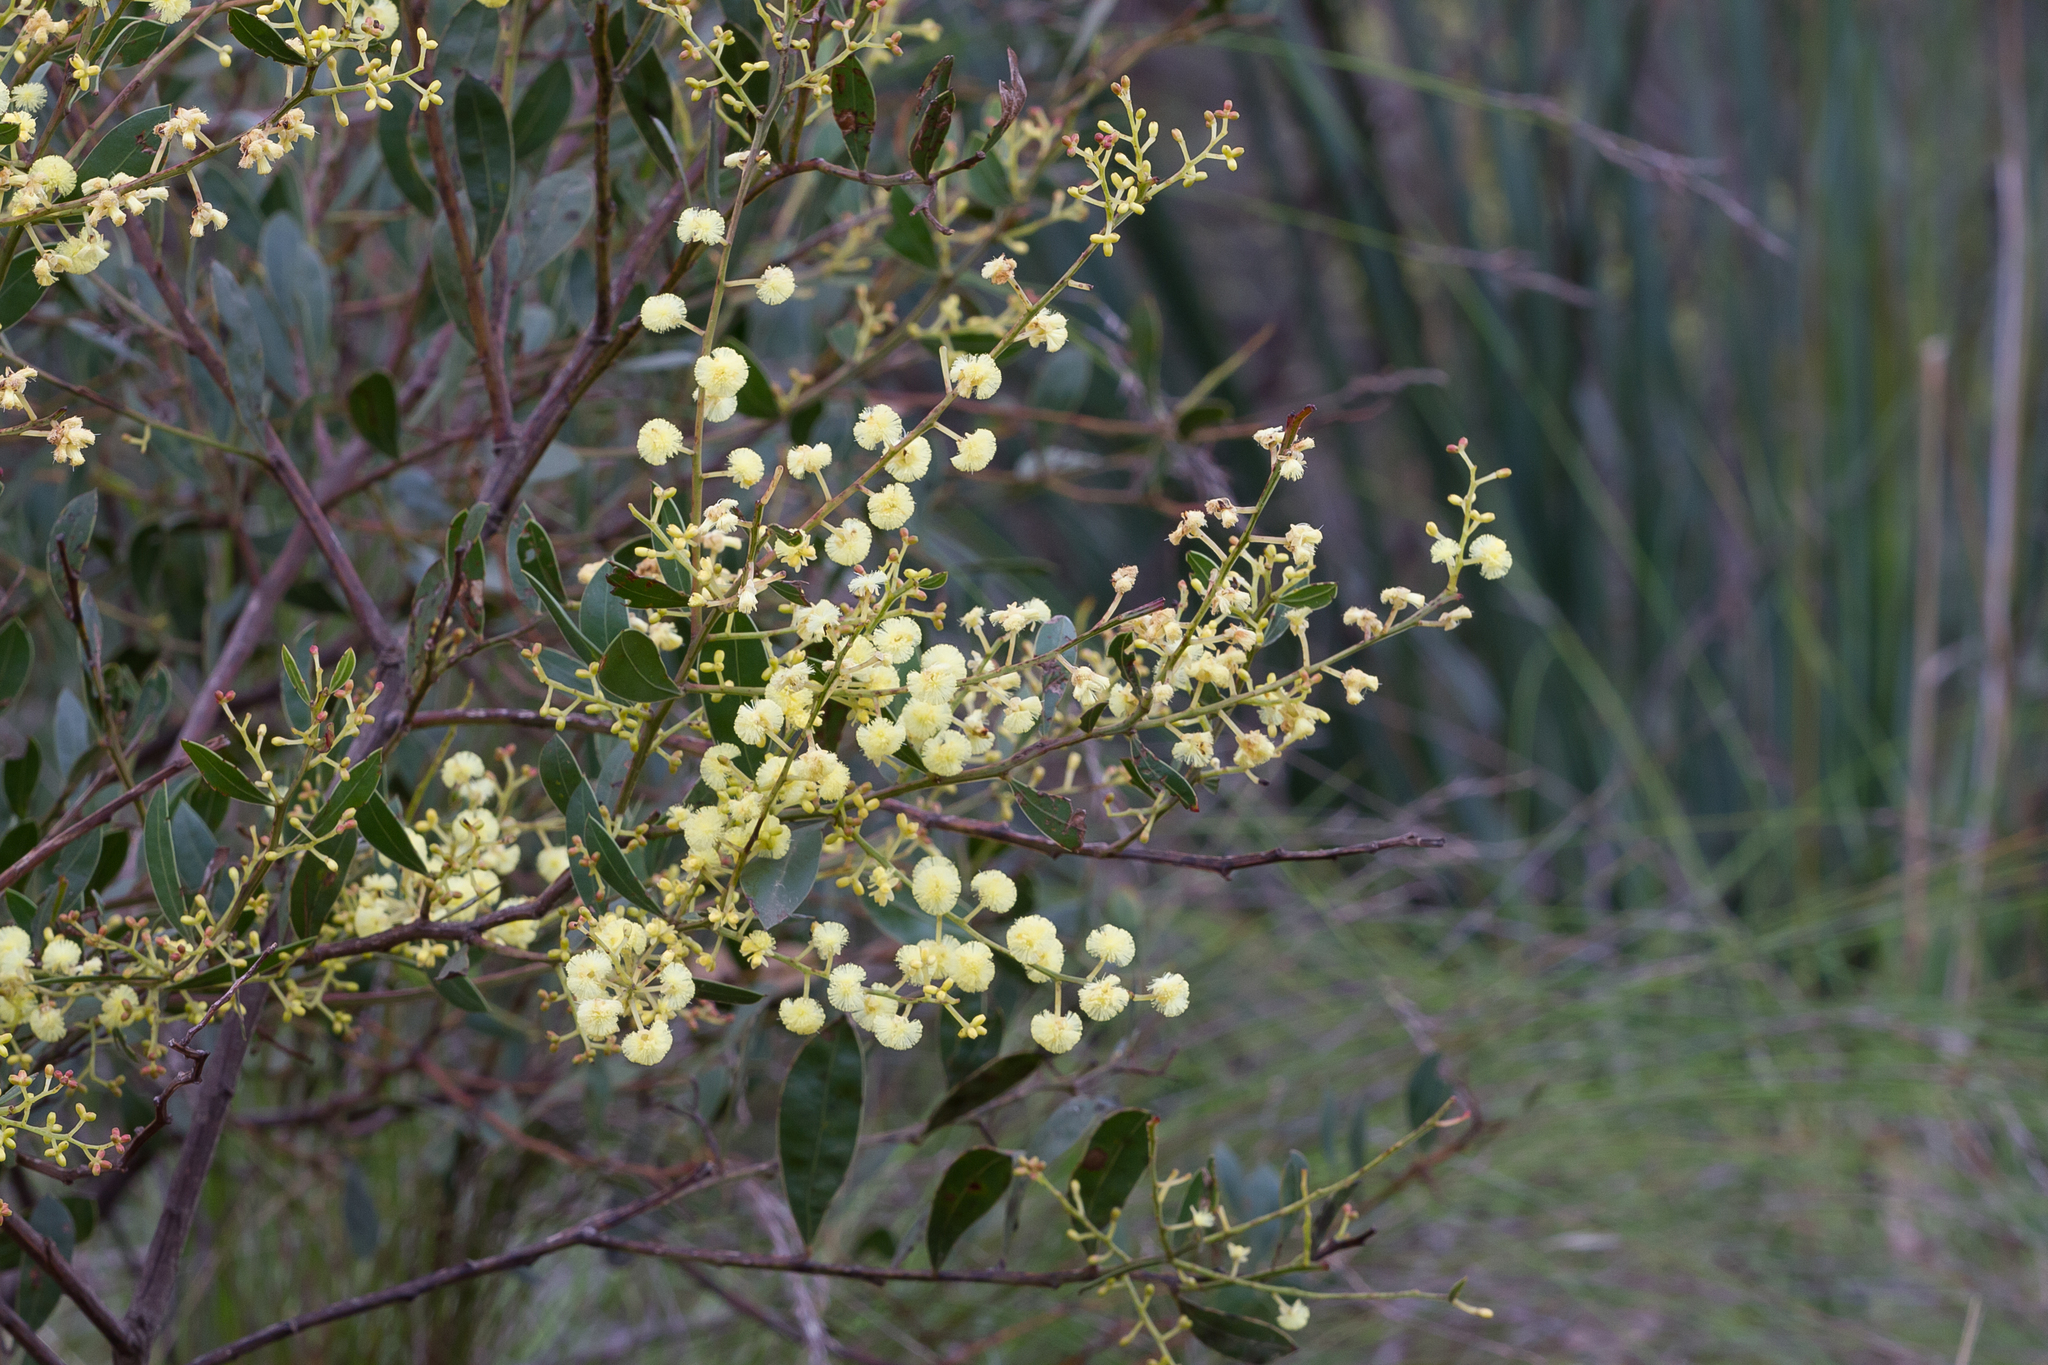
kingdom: Plantae
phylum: Tracheophyta
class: Magnoliopsida
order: Fabales
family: Fabaceae
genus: Acacia
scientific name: Acacia myrtifolia
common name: Myrtle wattle
